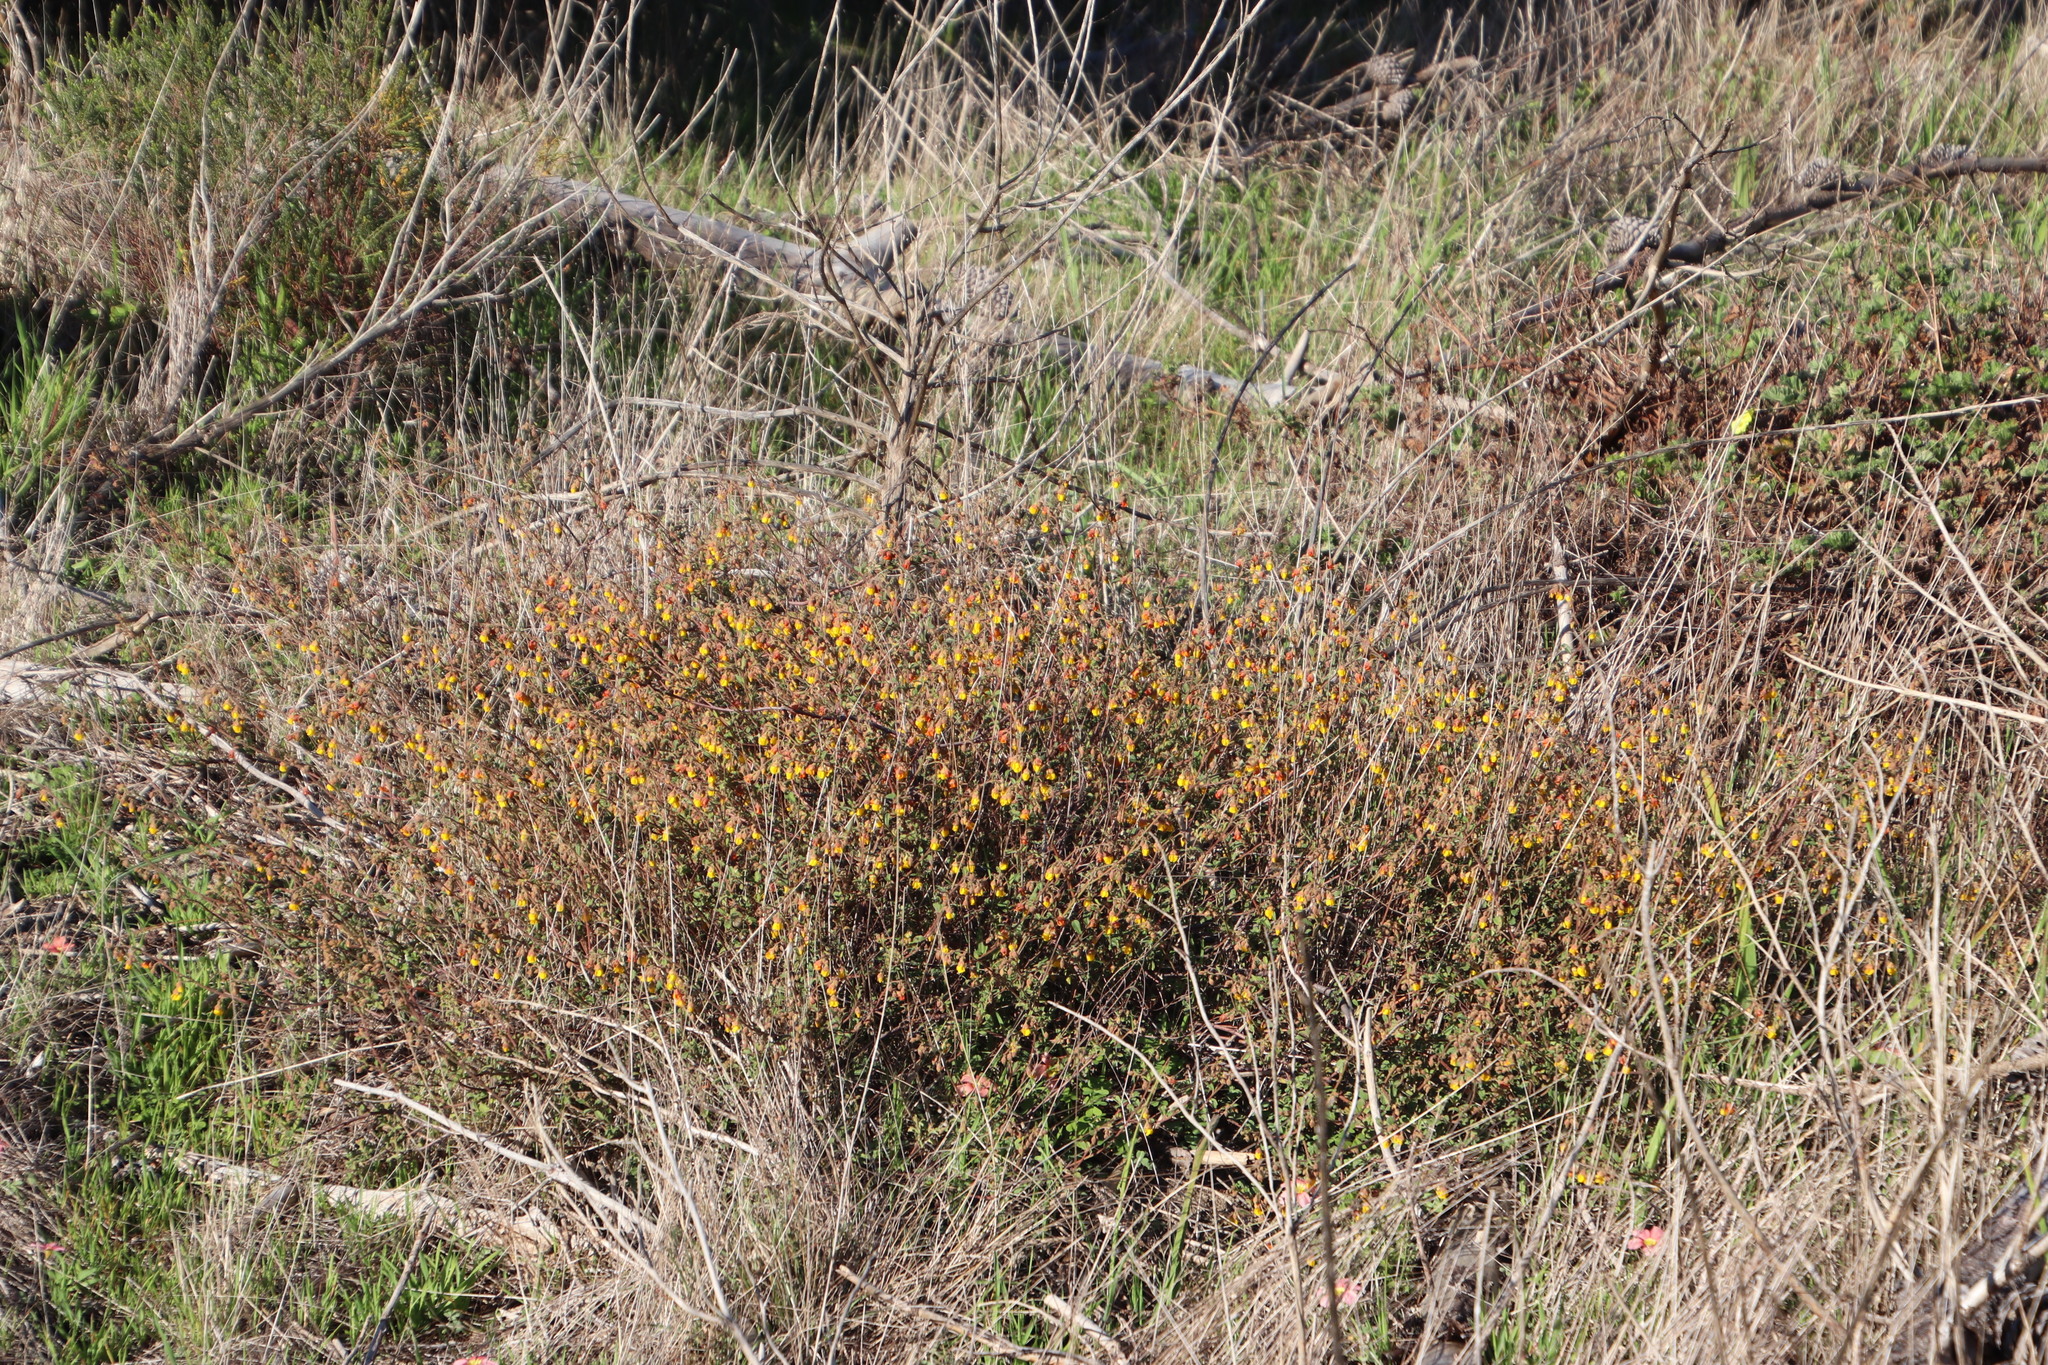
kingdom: Plantae
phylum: Tracheophyta
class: Magnoliopsida
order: Malvales
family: Malvaceae
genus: Hermannia
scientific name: Hermannia multiflora
